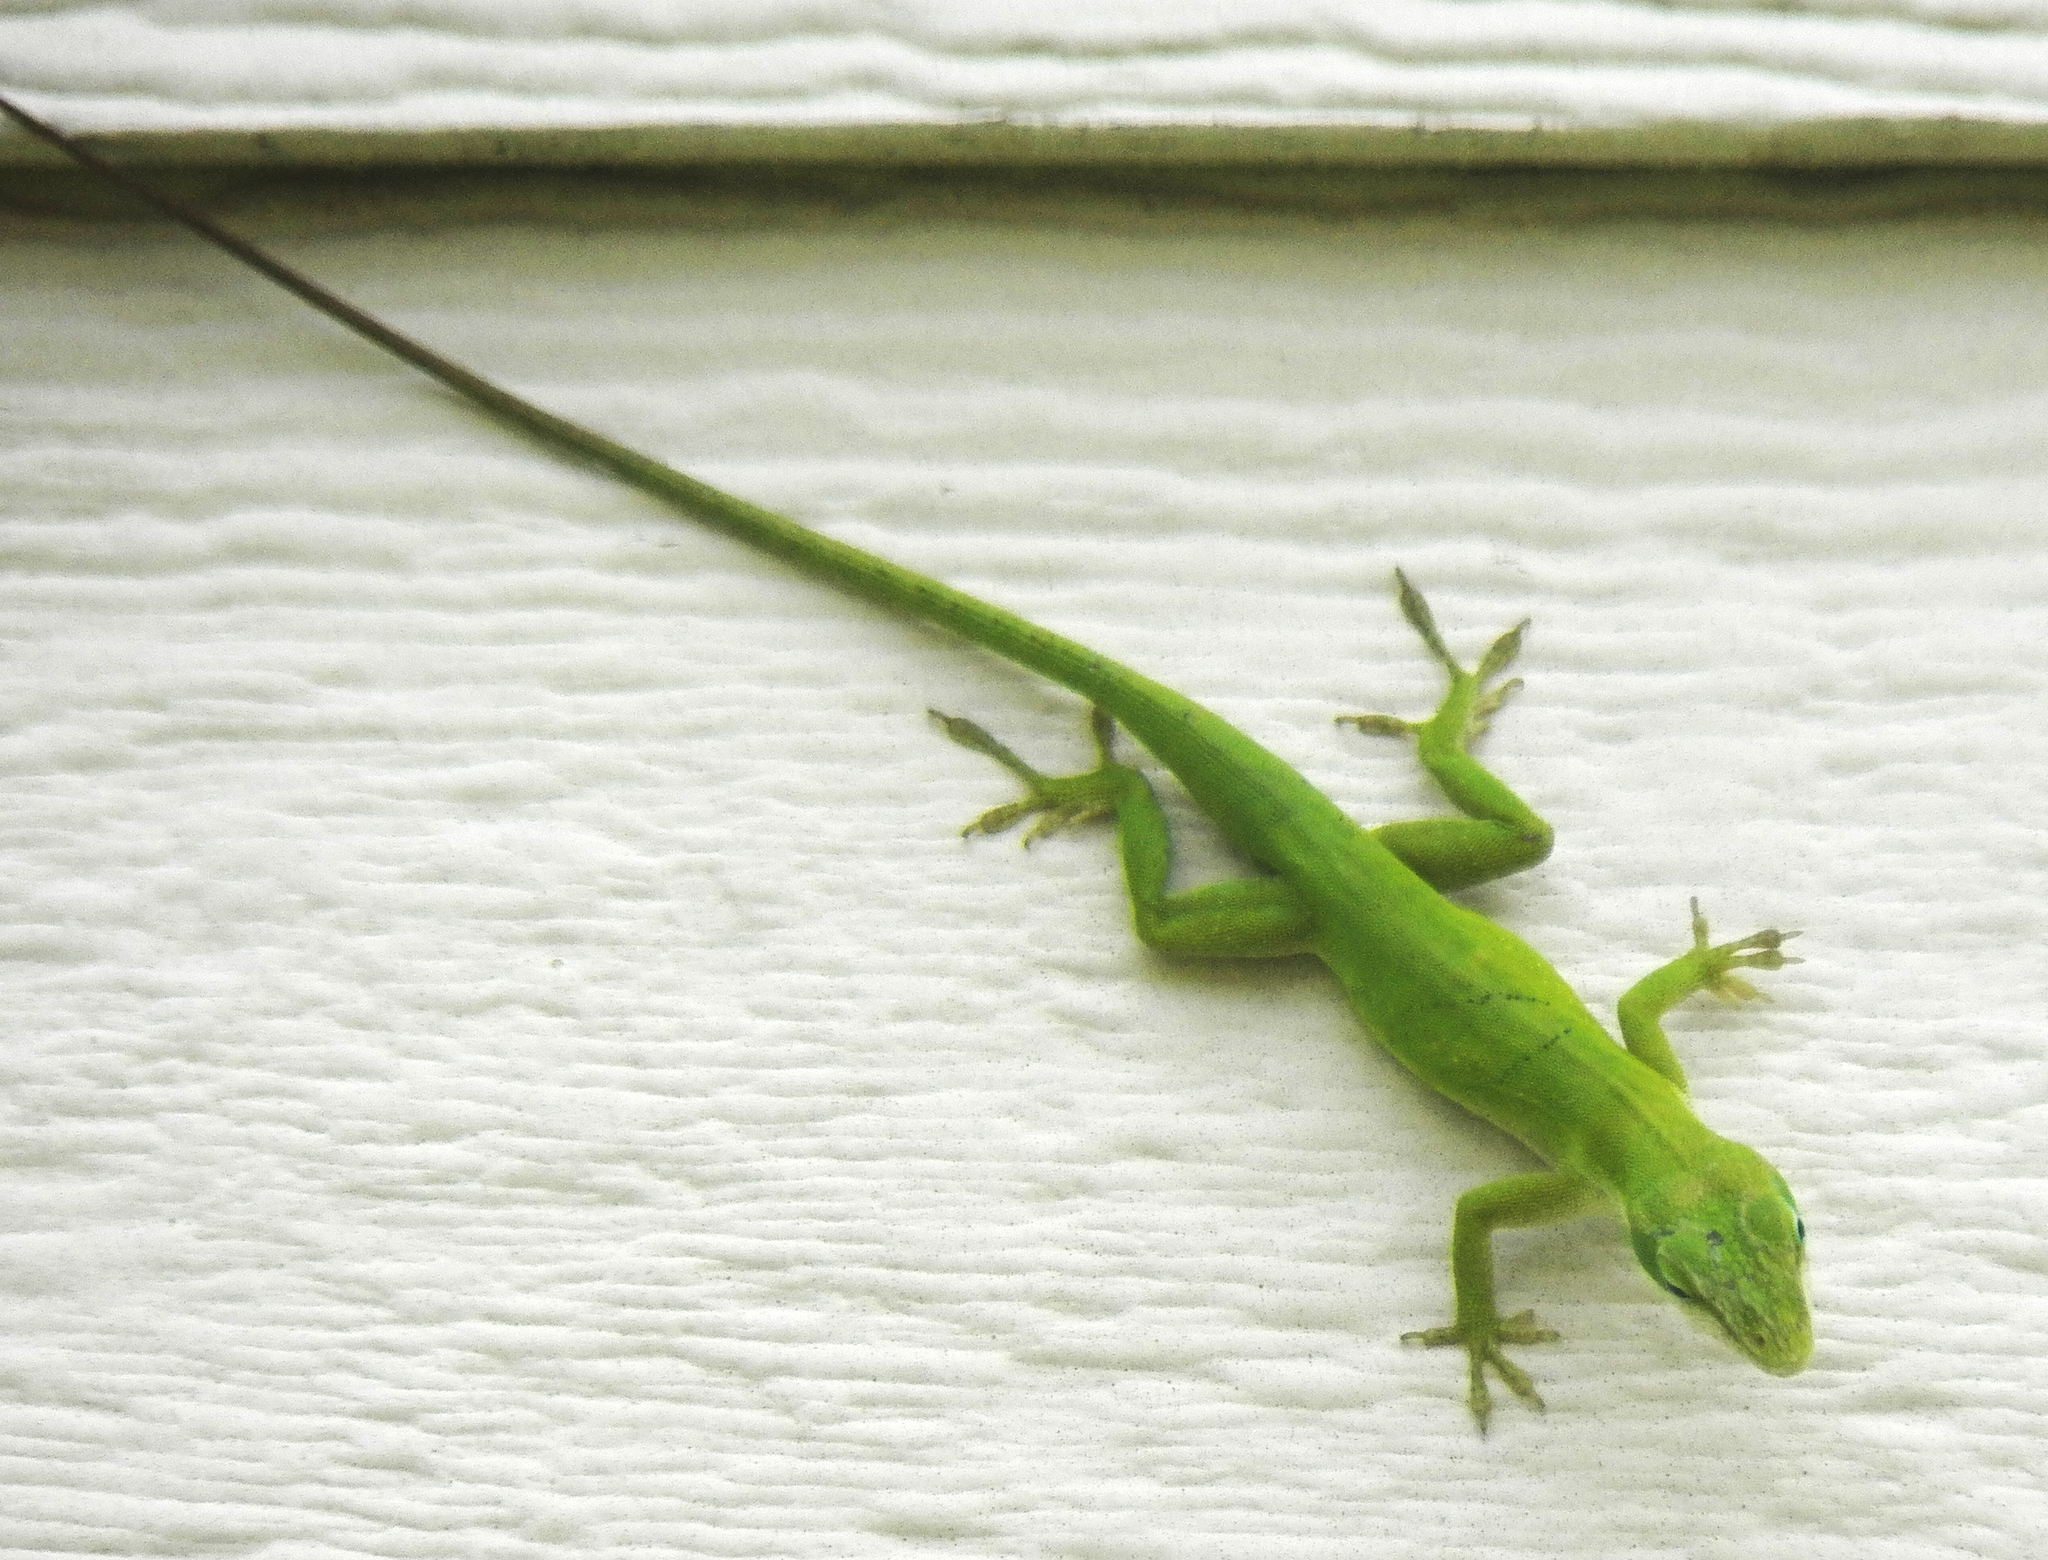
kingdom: Animalia
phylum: Chordata
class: Squamata
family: Dactyloidae
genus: Anolis
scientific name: Anolis carolinensis
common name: Green anole
